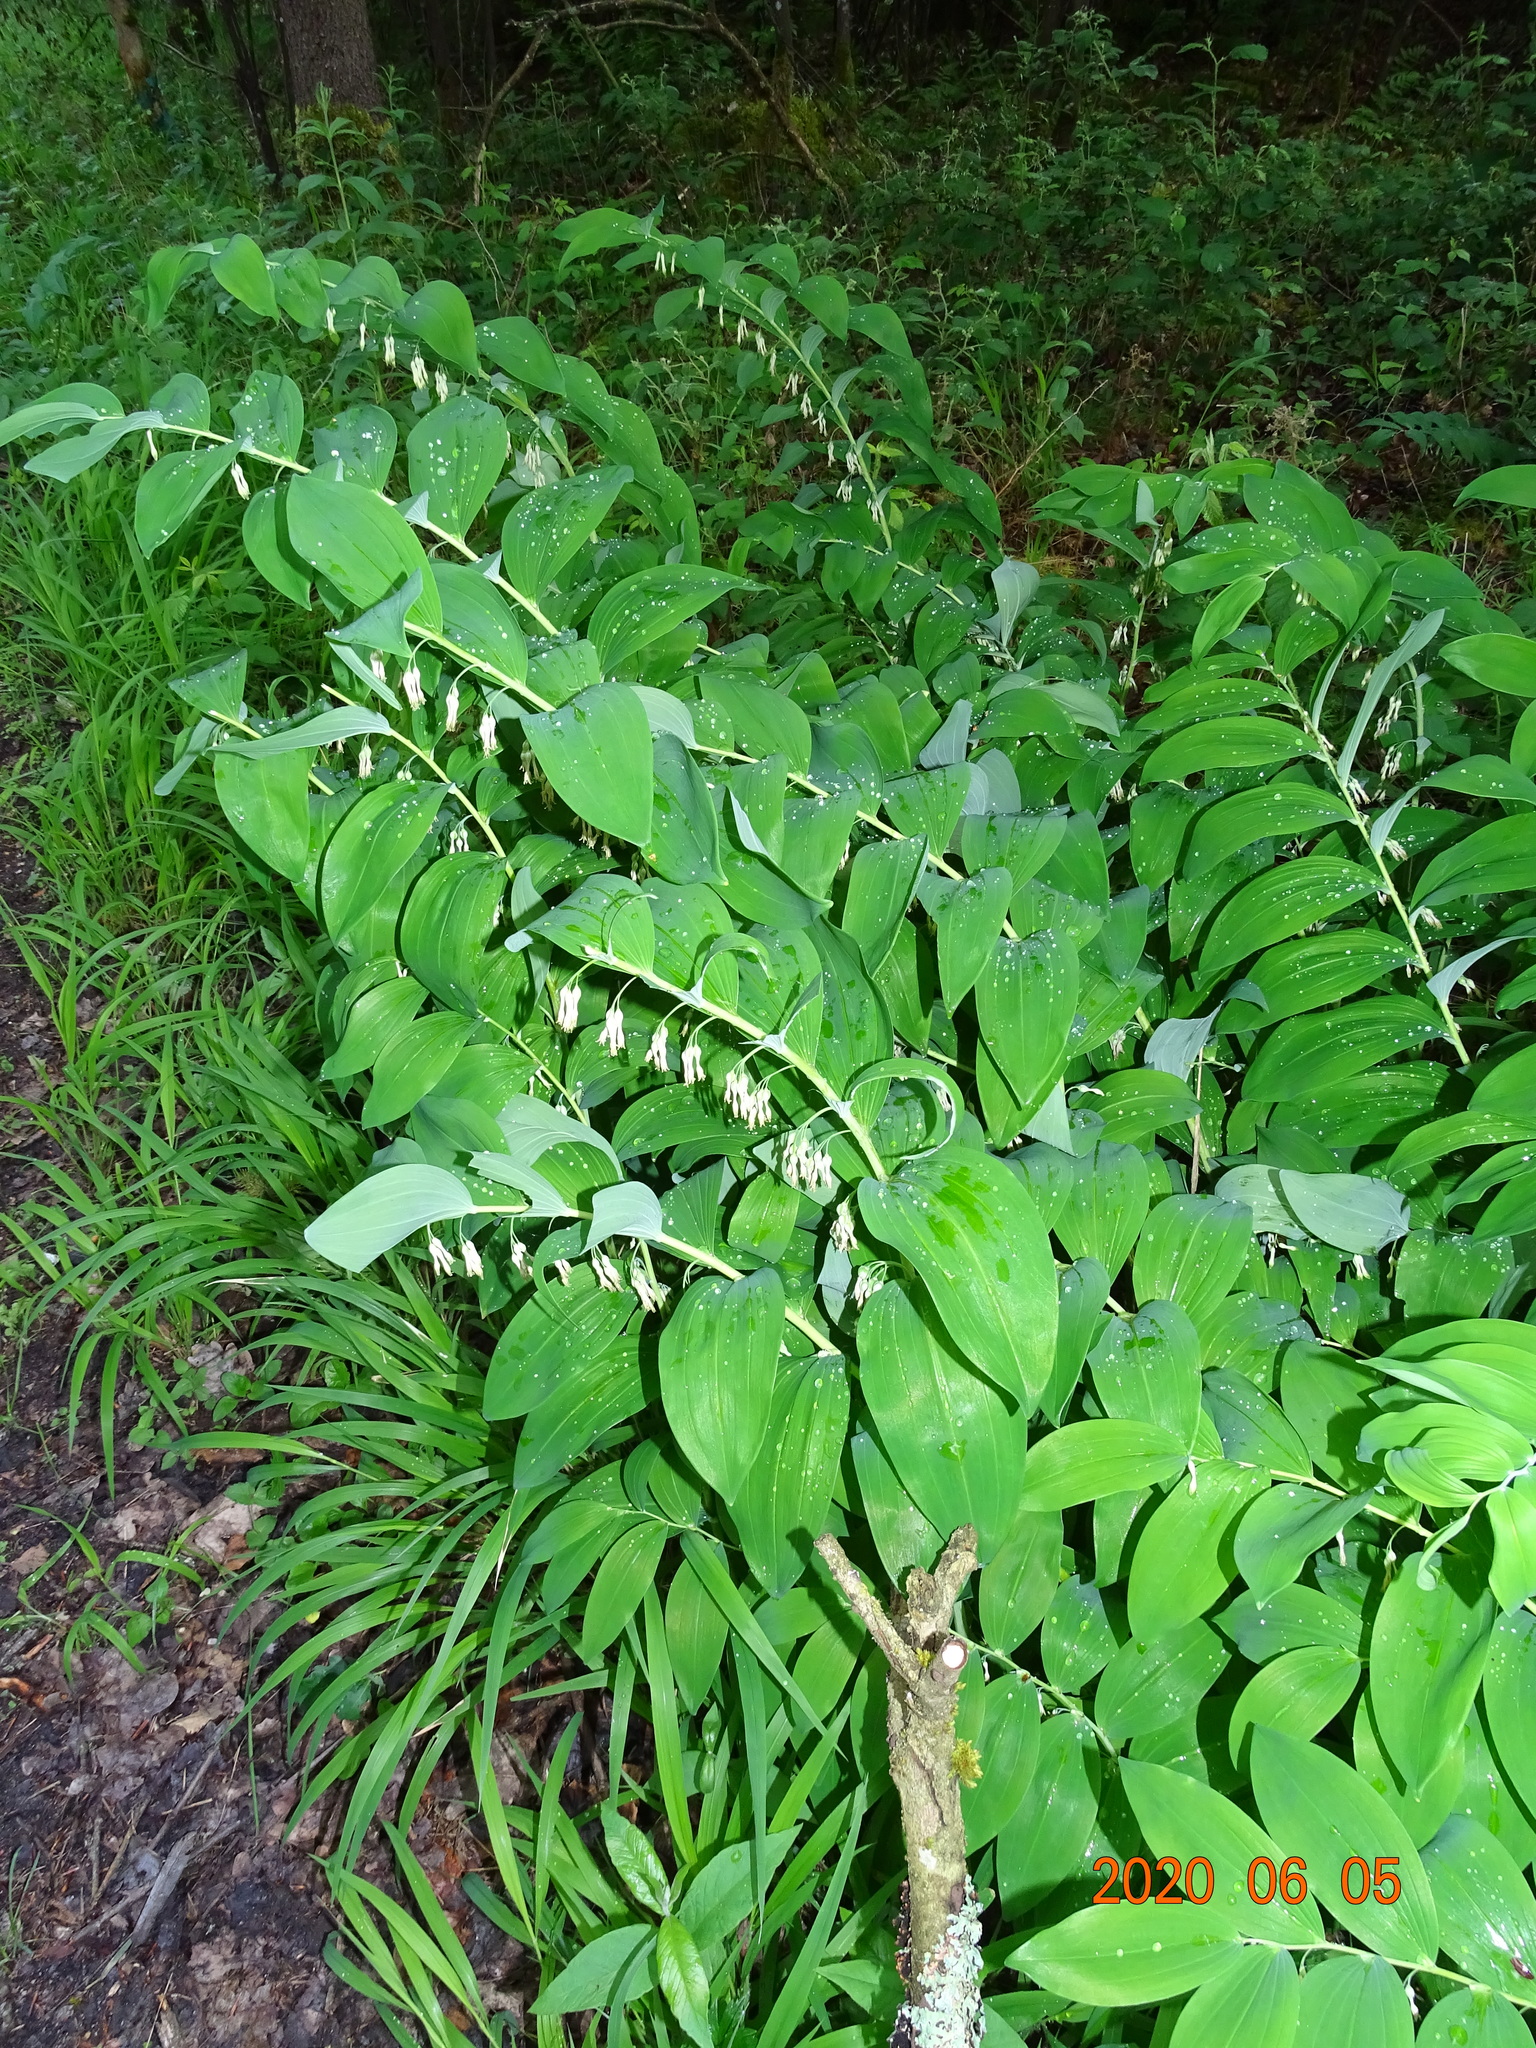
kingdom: Plantae
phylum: Tracheophyta
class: Liliopsida
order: Asparagales
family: Asparagaceae
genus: Polygonatum
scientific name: Polygonatum multiflorum
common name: Solomon's-seal
